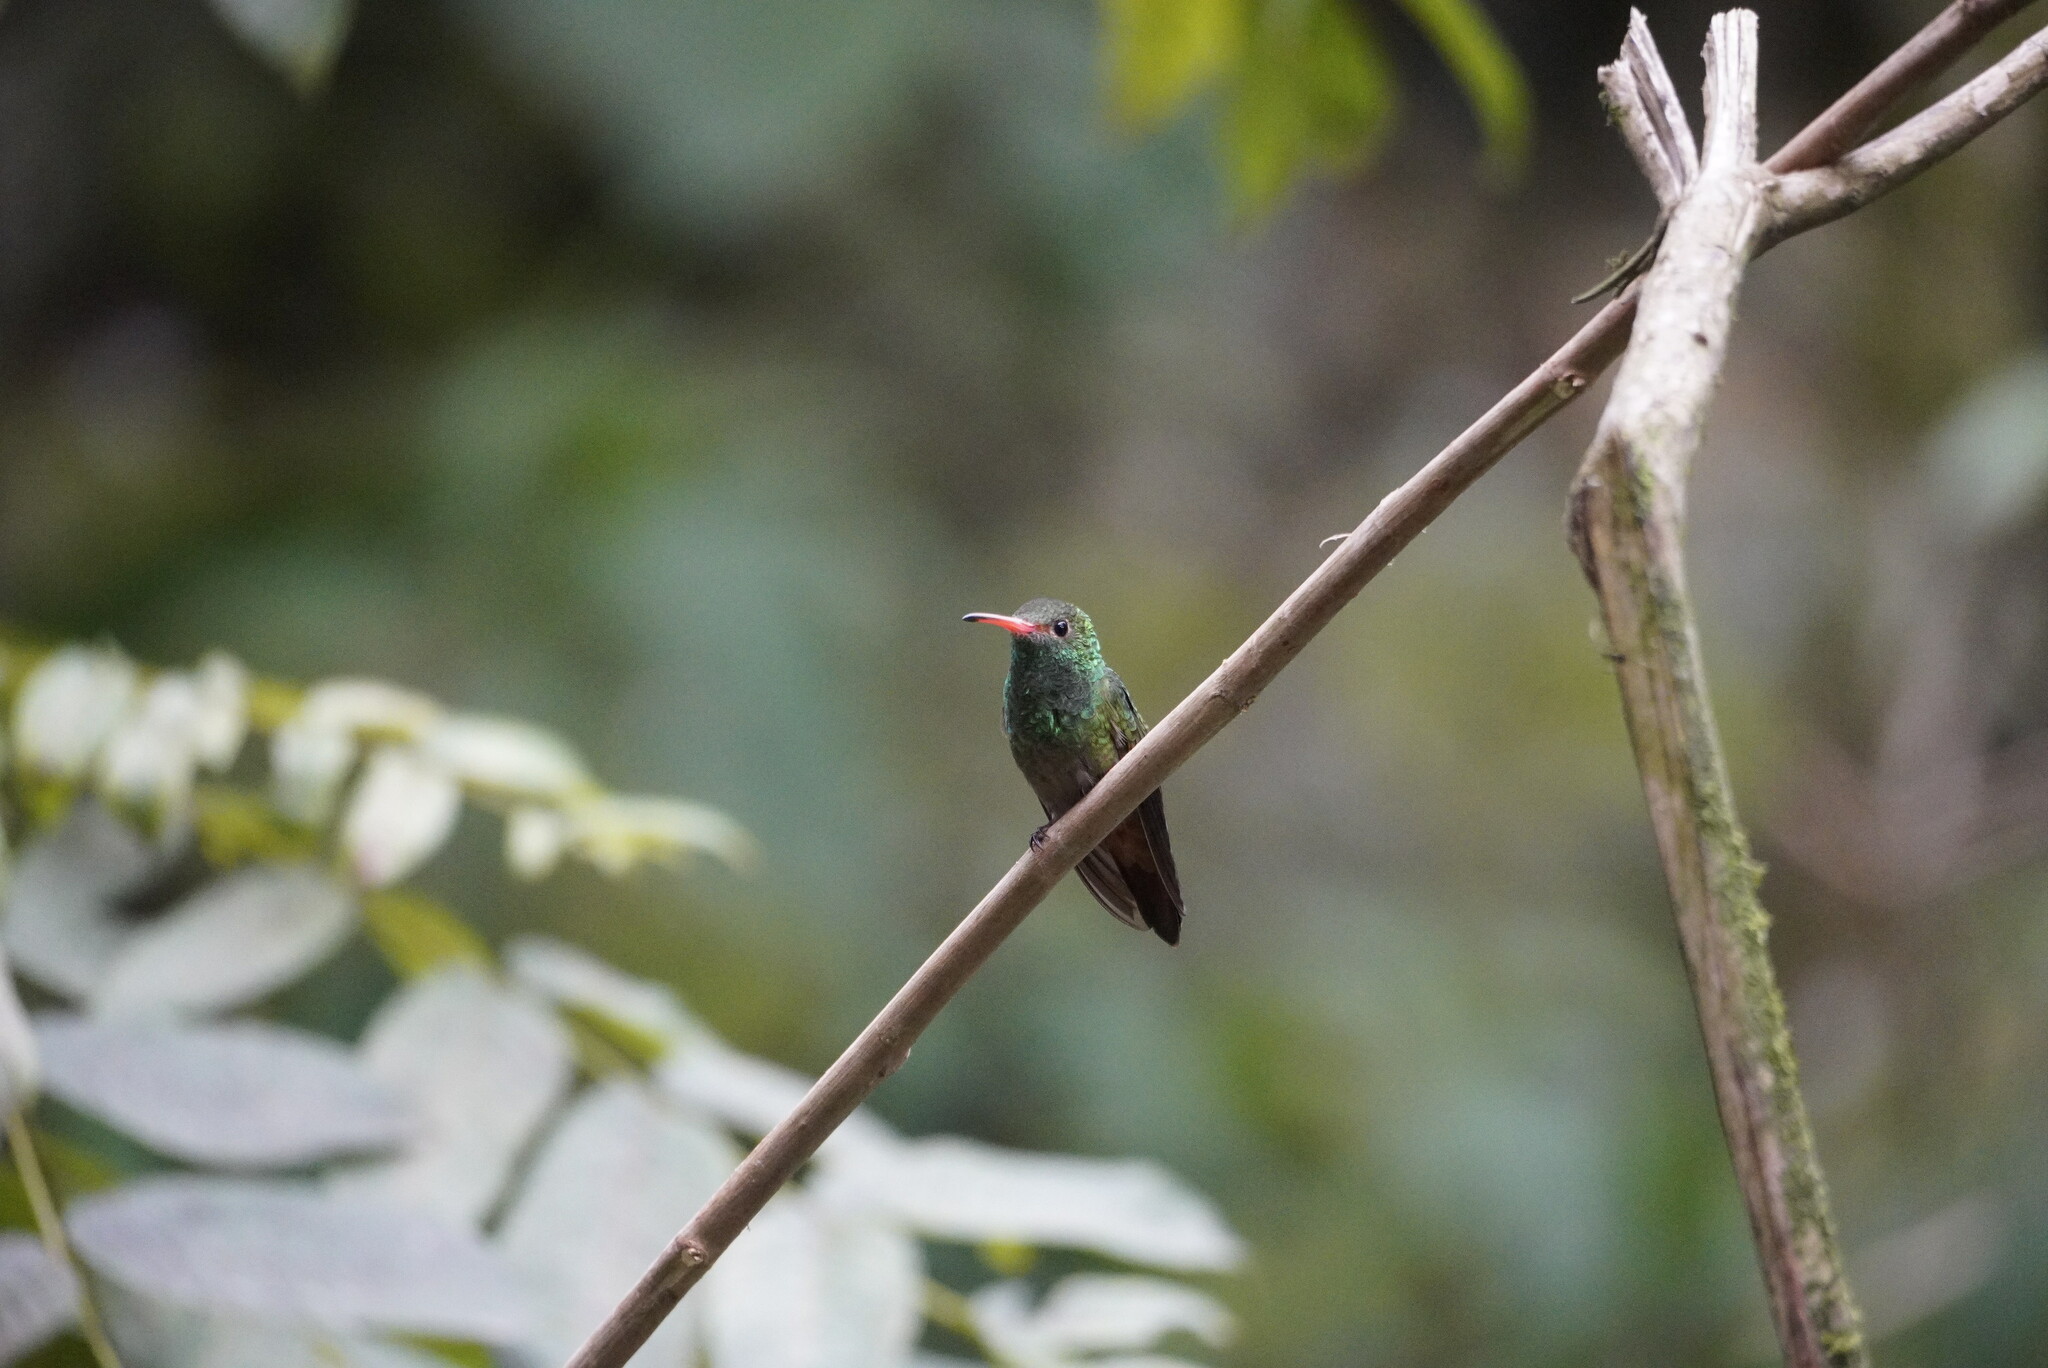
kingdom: Animalia
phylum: Chordata
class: Aves
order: Apodiformes
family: Trochilidae
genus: Amazilia
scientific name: Amazilia tzacatl
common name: Rufous-tailed hummingbird
